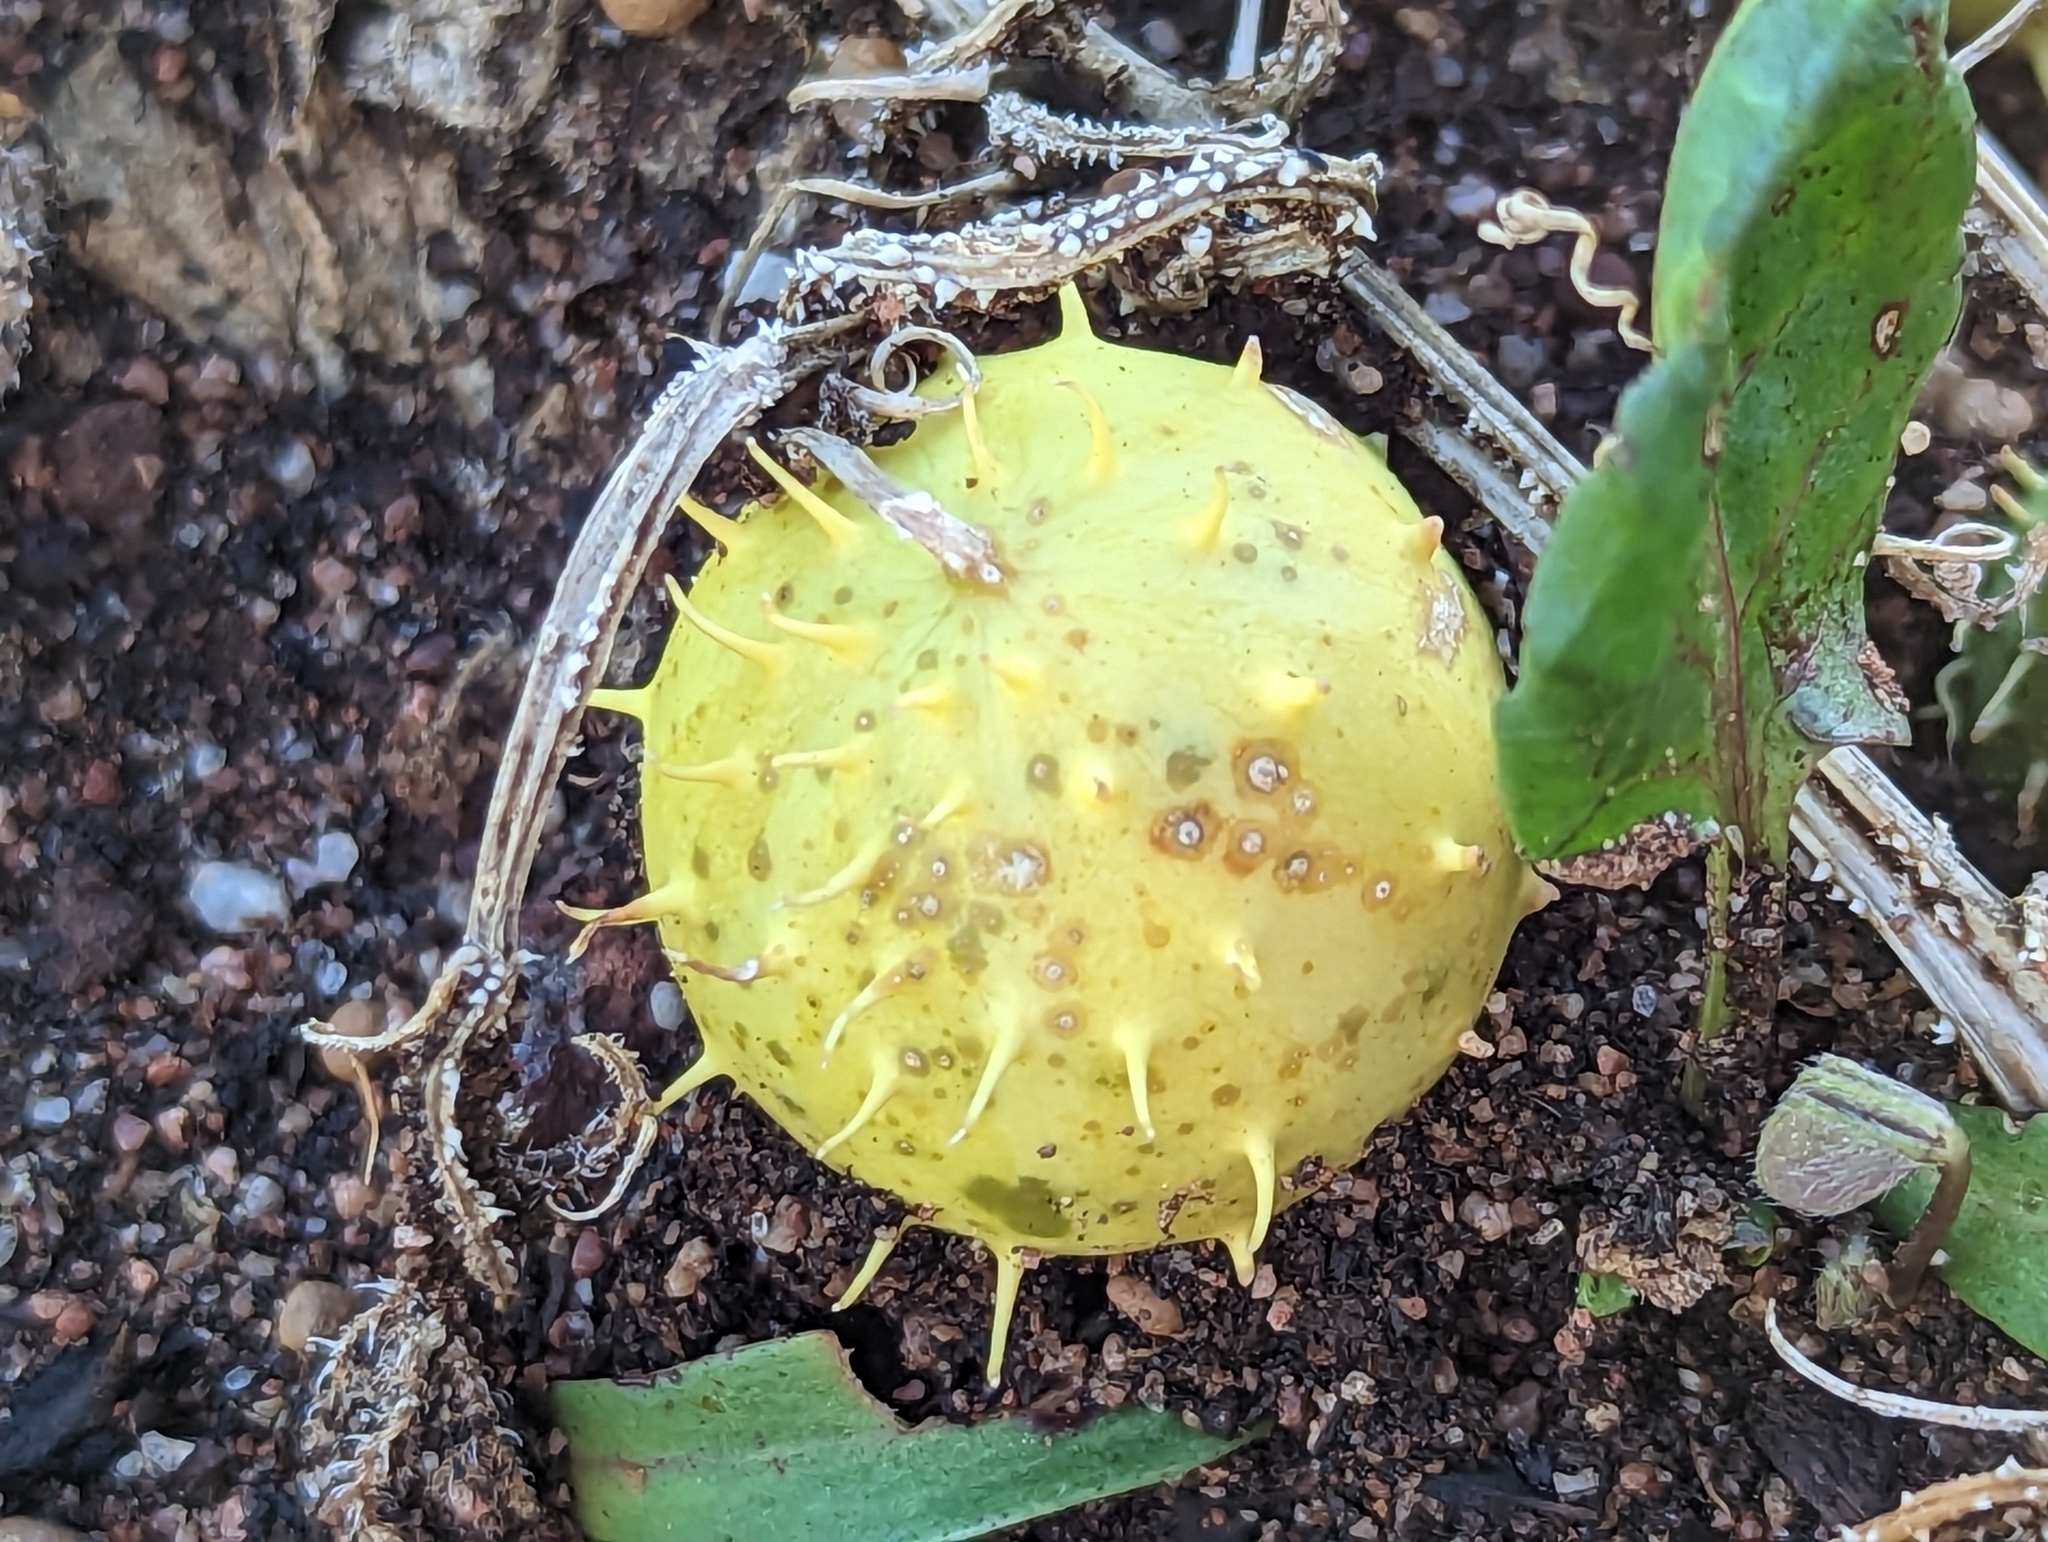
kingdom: Plantae
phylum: Tracheophyta
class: Magnoliopsida
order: Cucurbitales
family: Cucurbitaceae
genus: Citrullus
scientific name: Citrullus amarus
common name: Fodder-melon
